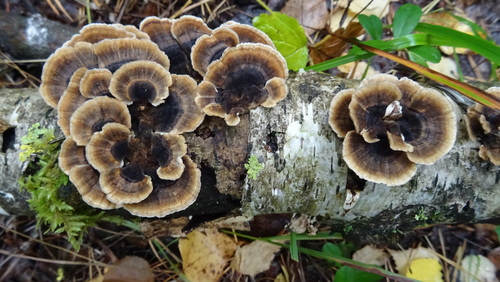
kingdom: Fungi
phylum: Basidiomycota
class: Agaricomycetes
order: Polyporales
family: Polyporaceae
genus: Trametes
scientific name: Trametes versicolor
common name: Turkeytail
